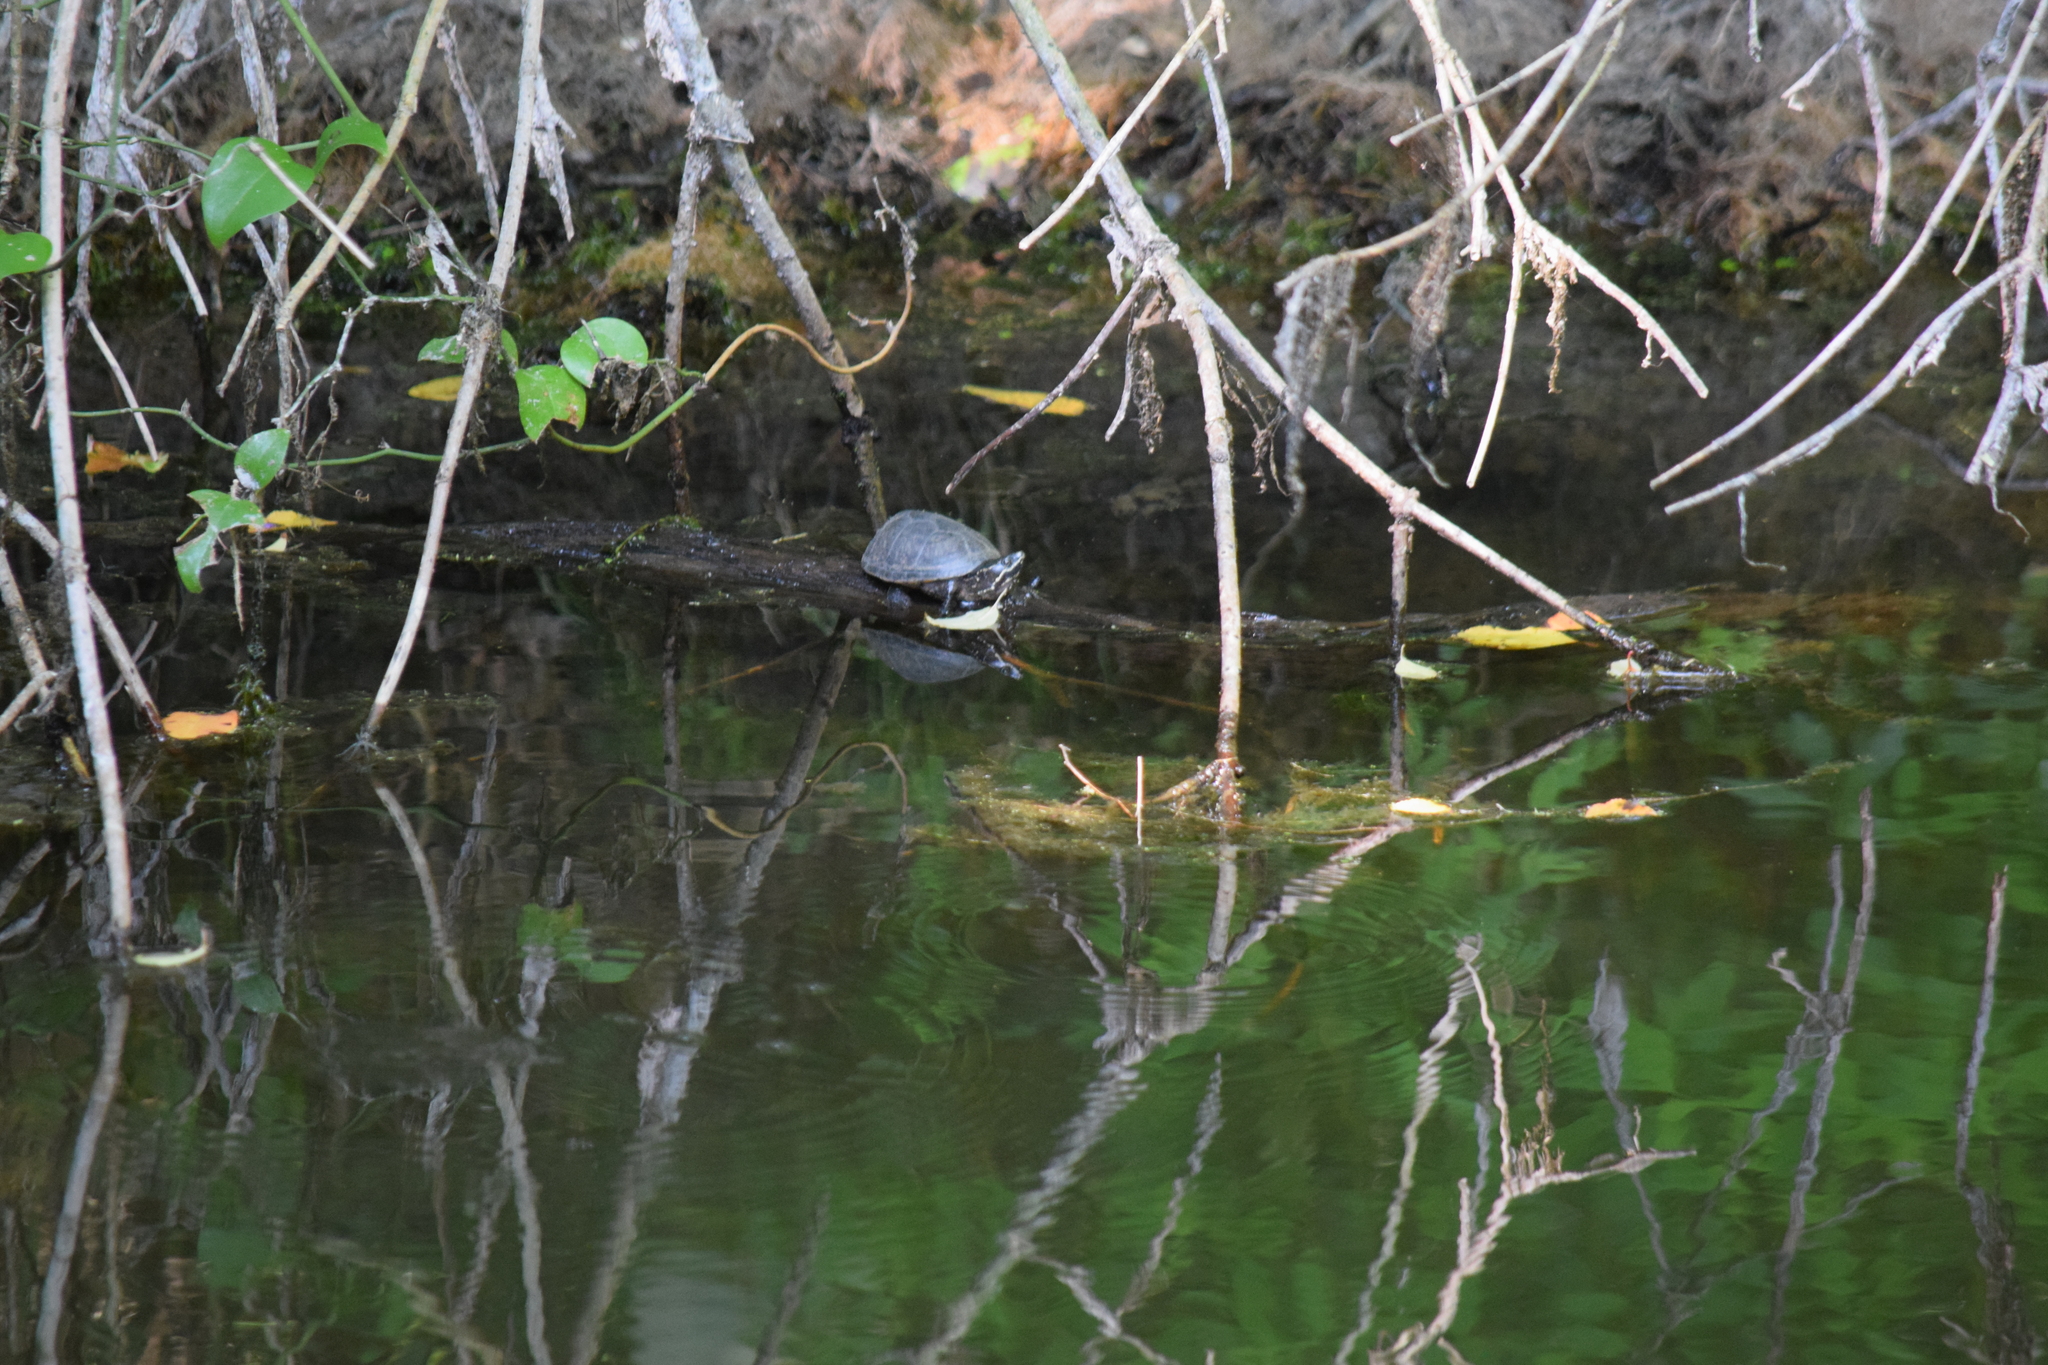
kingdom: Animalia
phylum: Chordata
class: Testudines
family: Kinosternidae
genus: Sternotherus
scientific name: Sternotherus odoratus
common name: Common musk turtle
